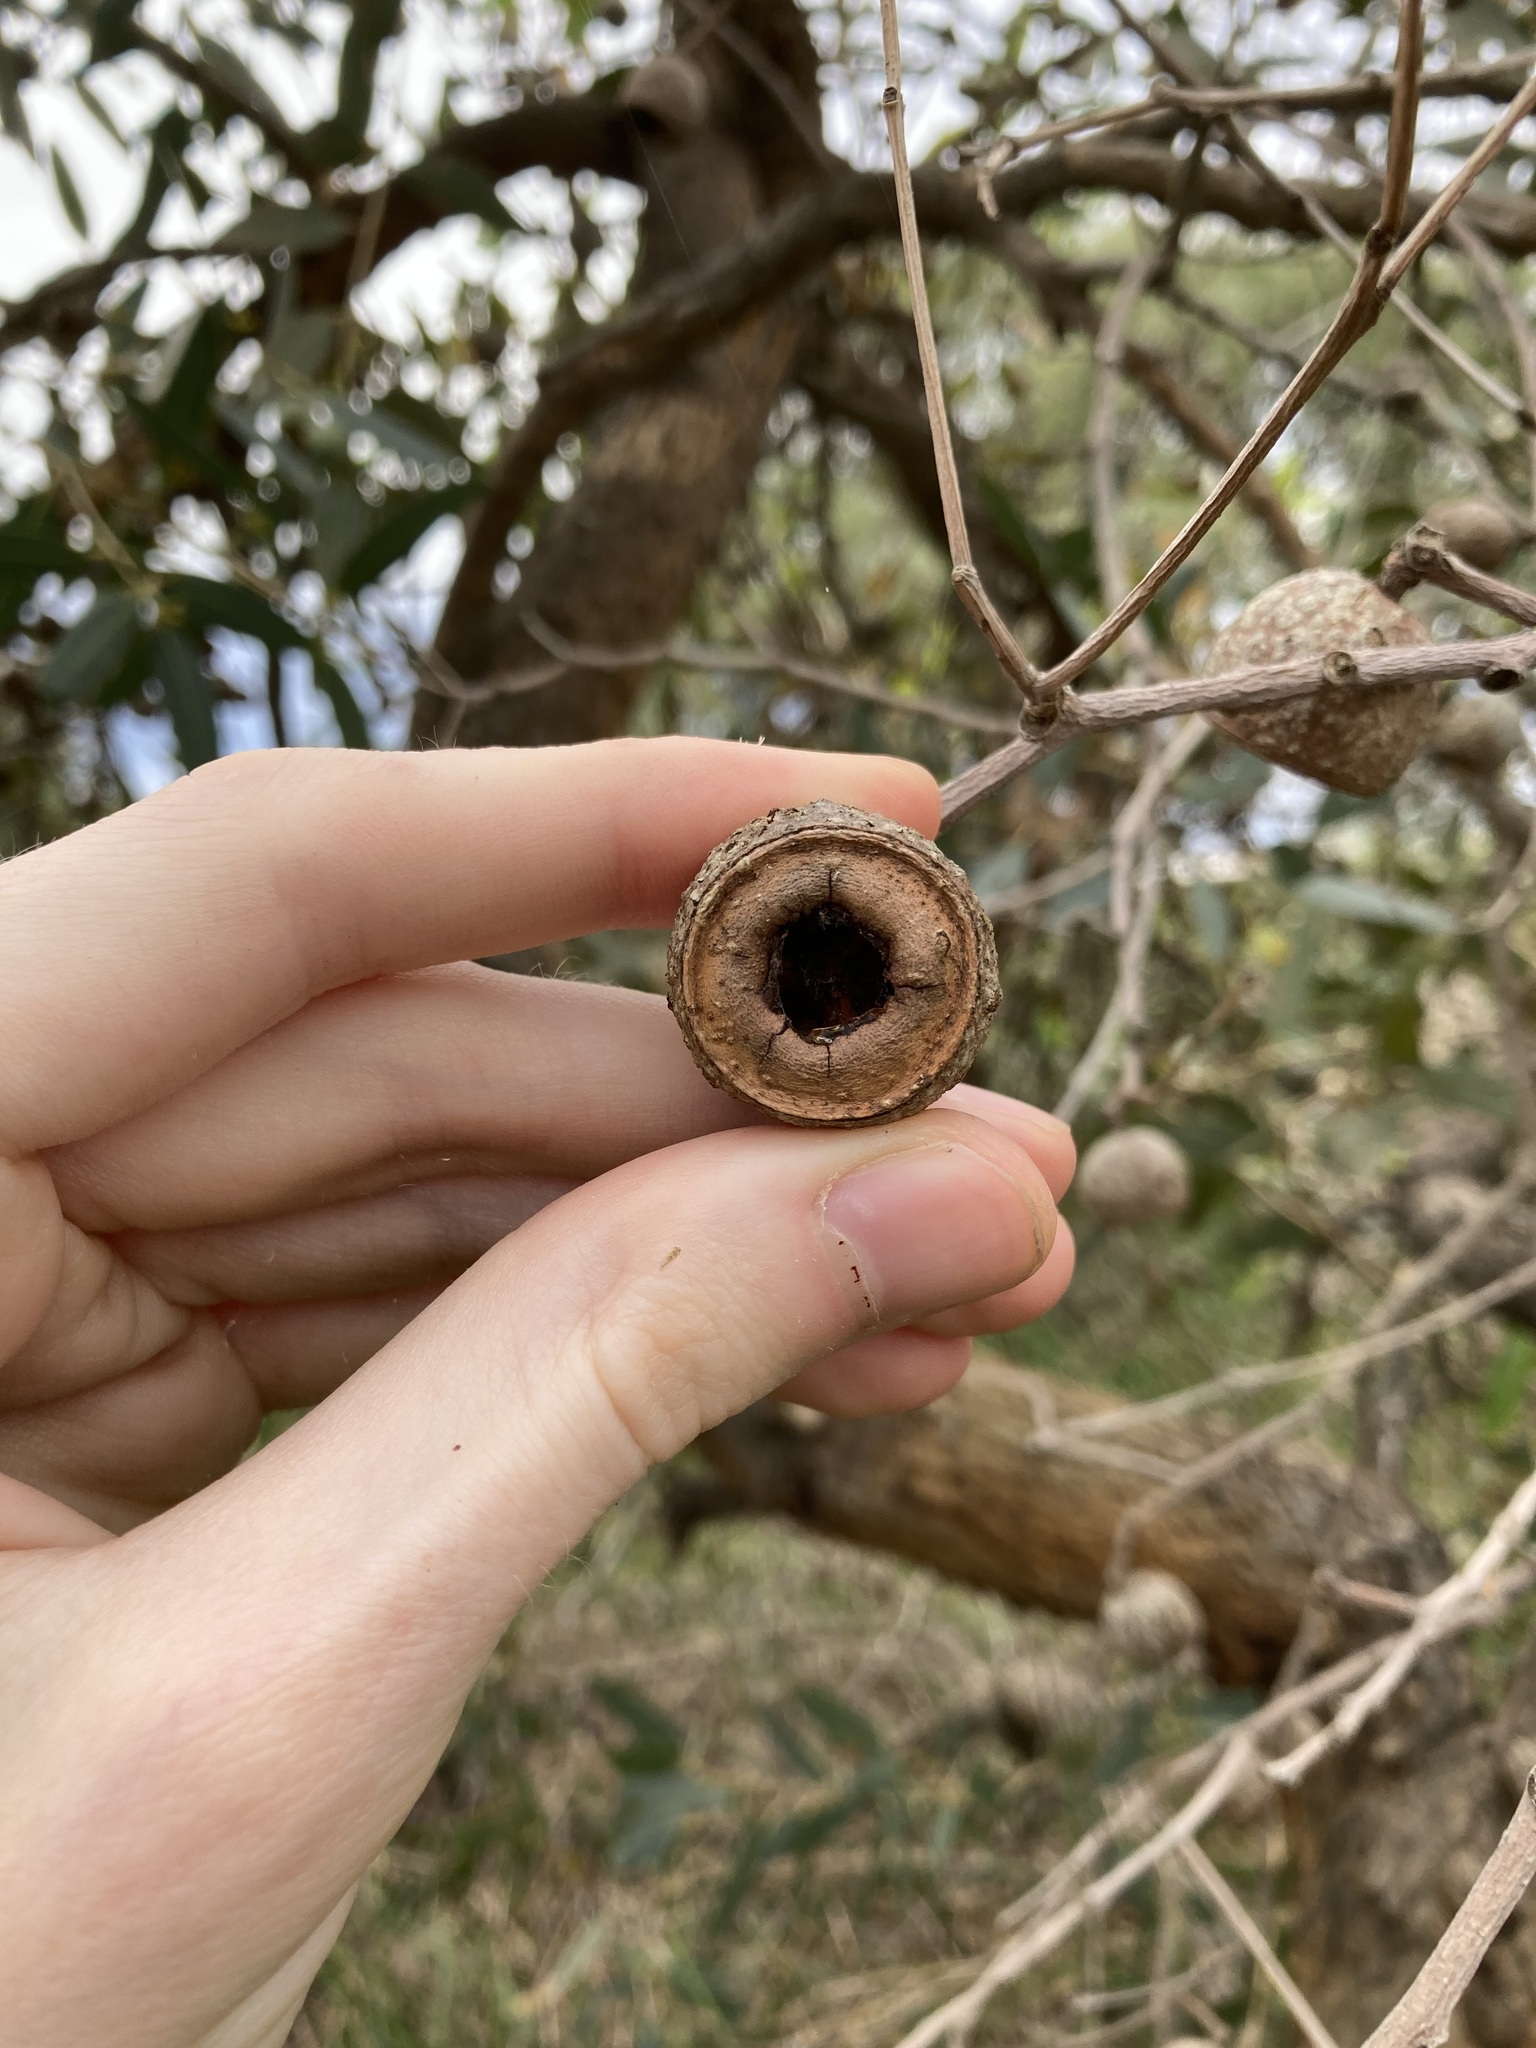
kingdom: Plantae
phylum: Tracheophyta
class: Magnoliopsida
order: Myrtales
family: Myrtaceae
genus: Eucalyptus
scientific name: Eucalyptus todtiana
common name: Coastal blackbutt
